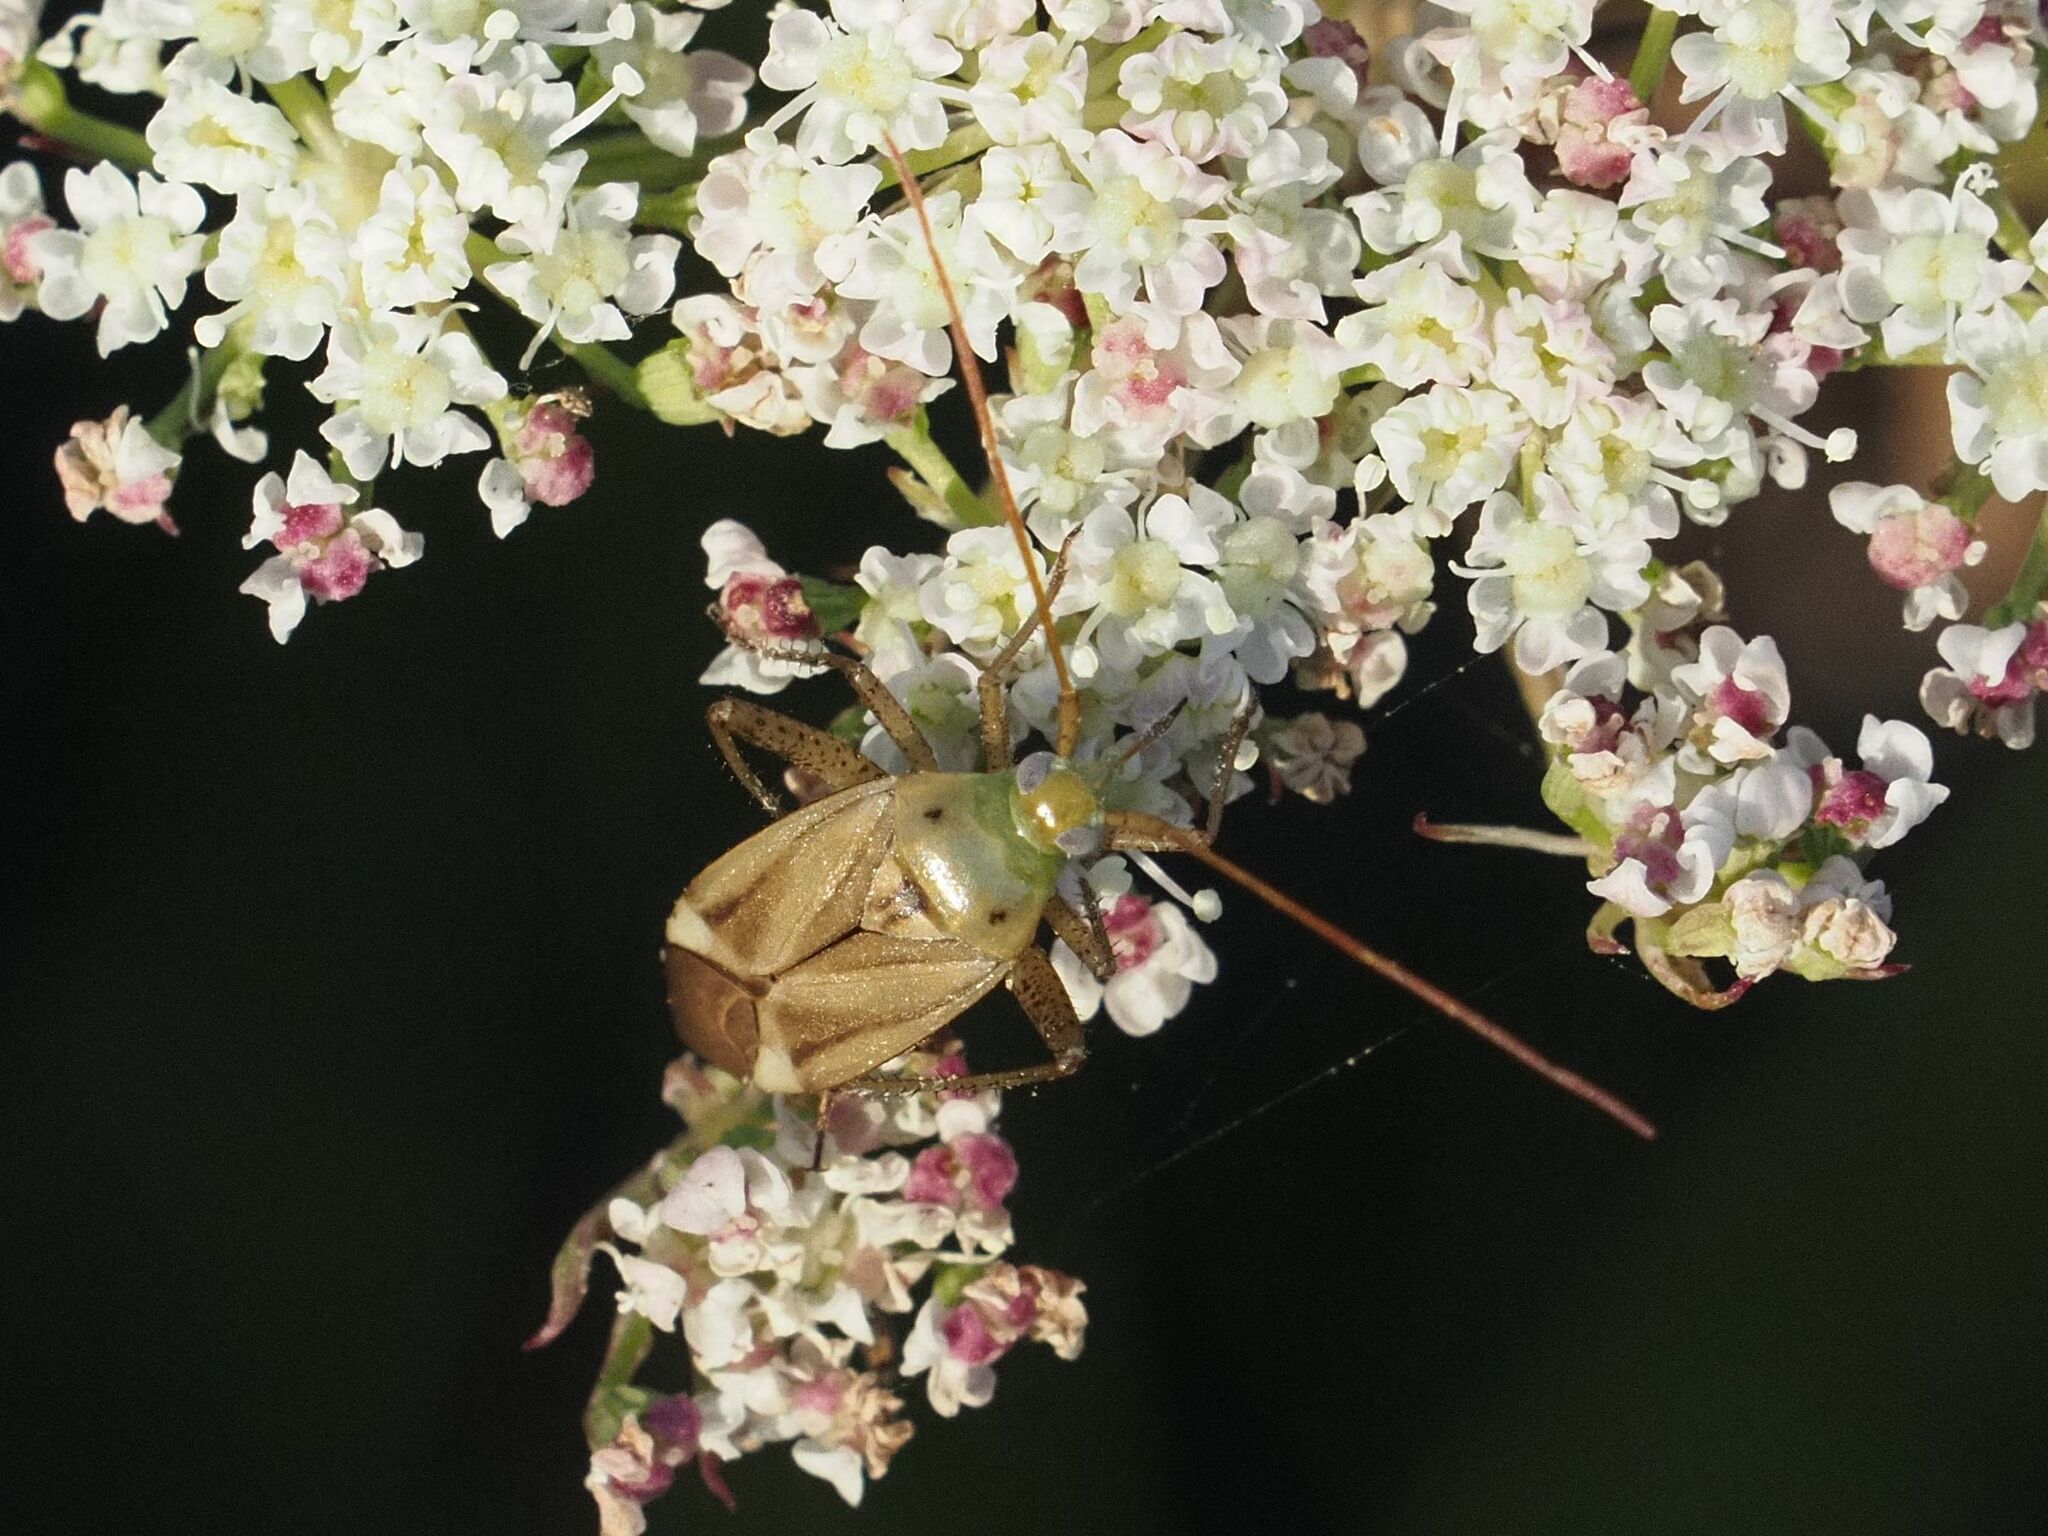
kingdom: Animalia
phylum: Arthropoda
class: Insecta
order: Hemiptera
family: Miridae
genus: Adelphocoris
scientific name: Adelphocoris lineolatus
